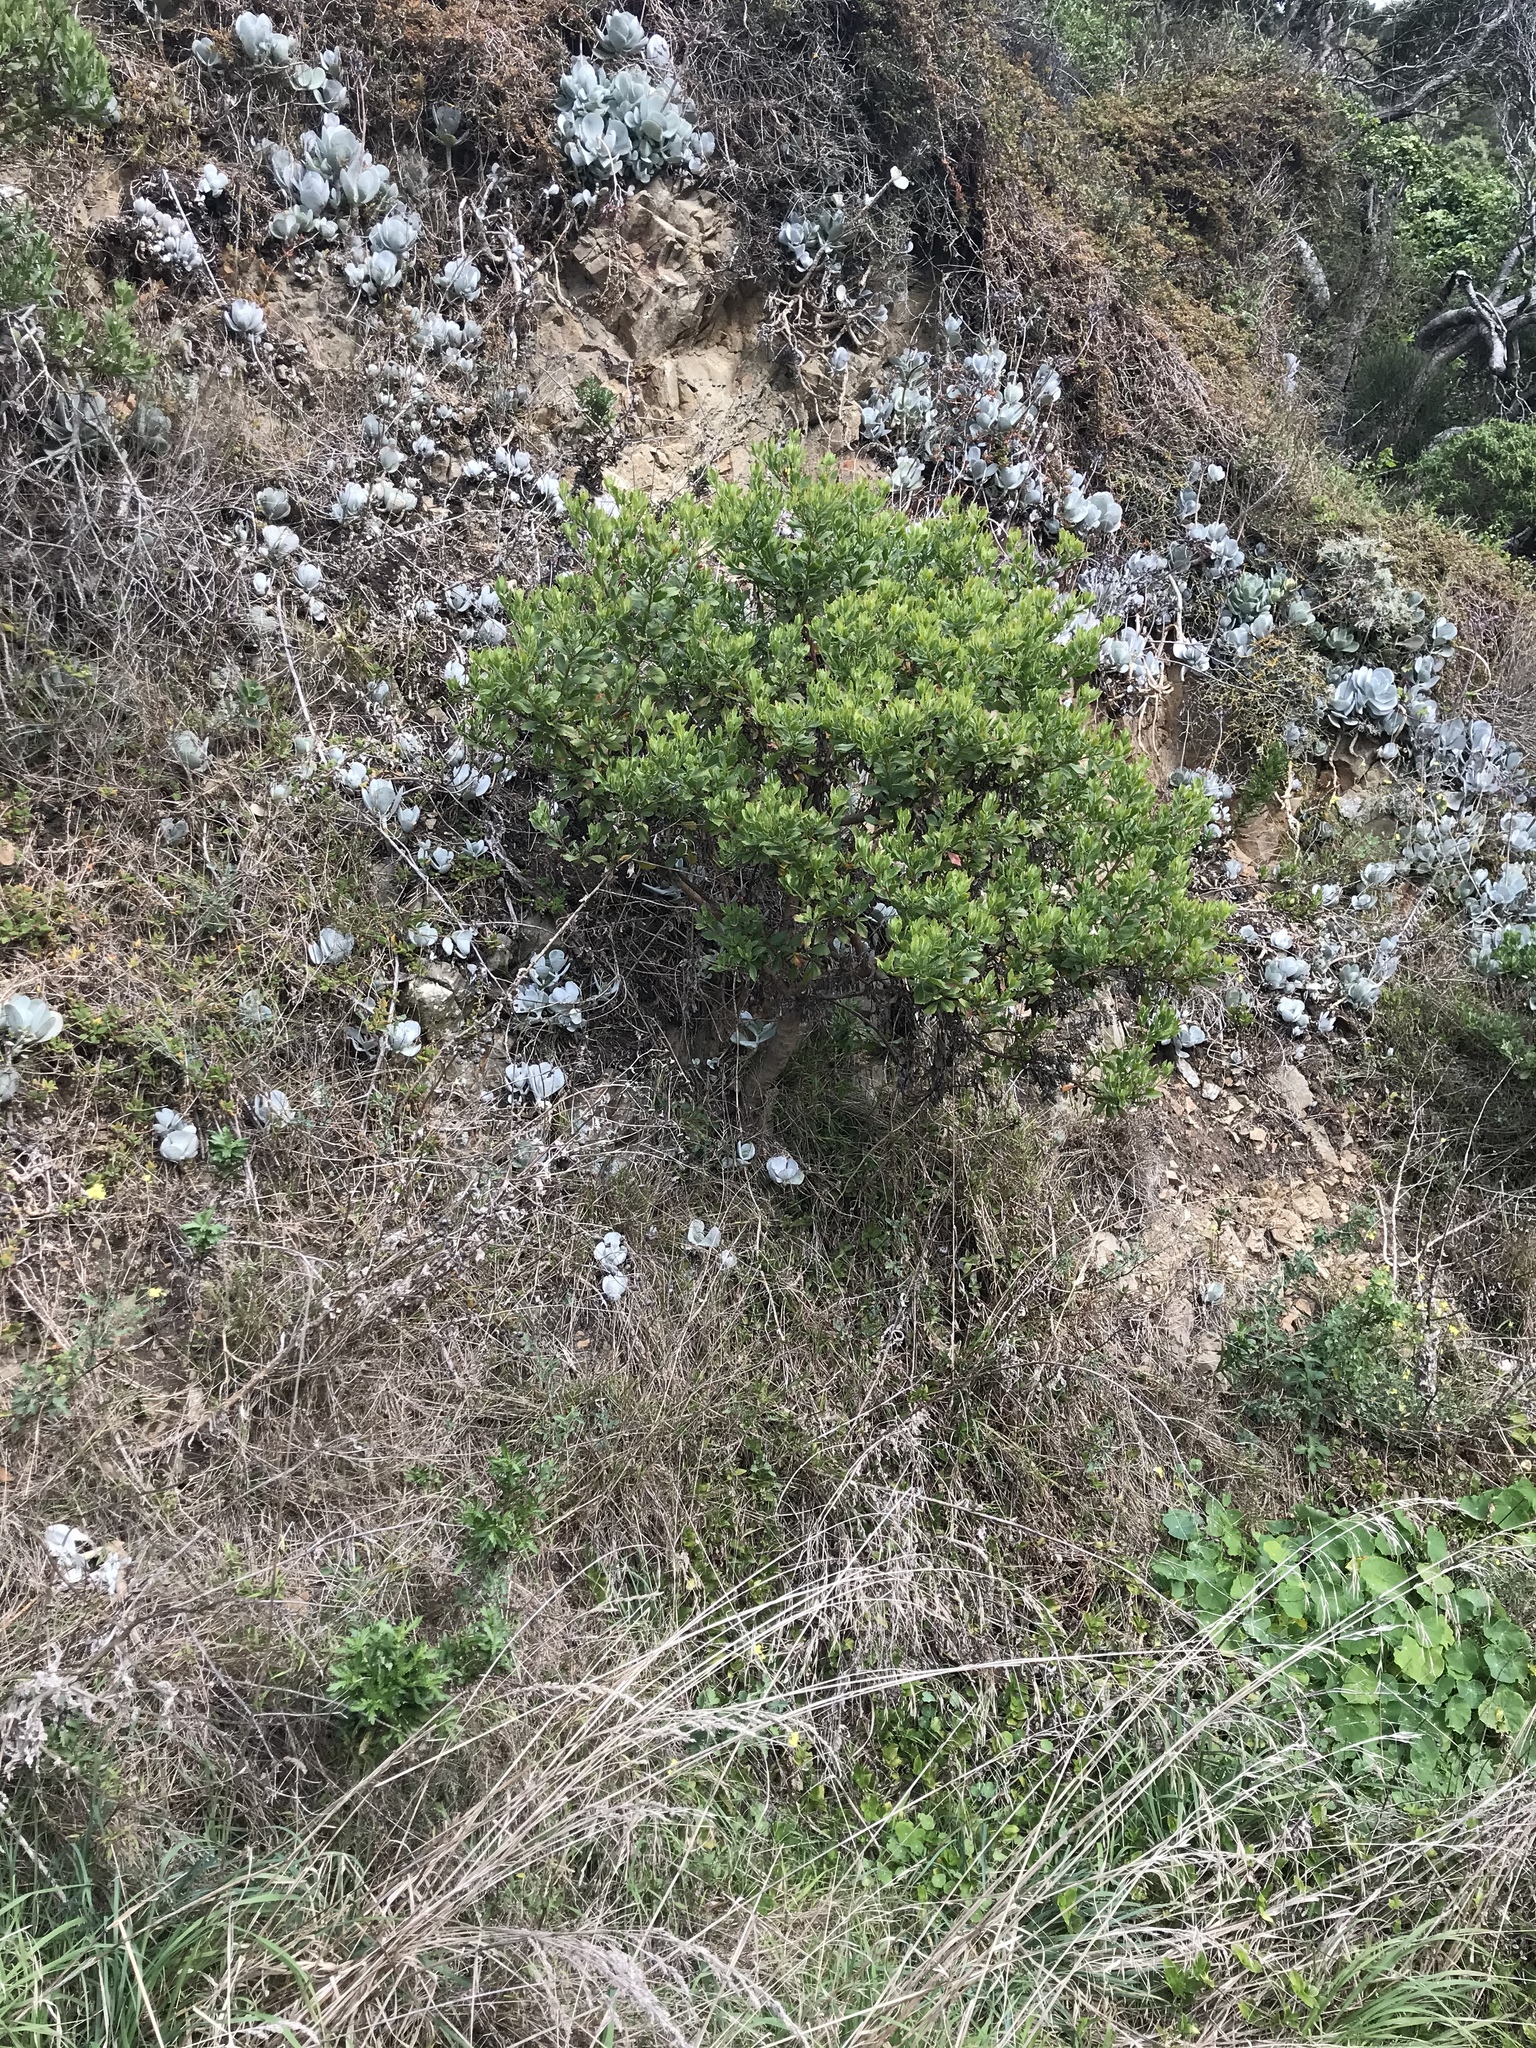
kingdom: Plantae
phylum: Tracheophyta
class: Magnoliopsida
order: Asterales
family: Asteraceae
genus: Osteospermum
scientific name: Osteospermum moniliferum
